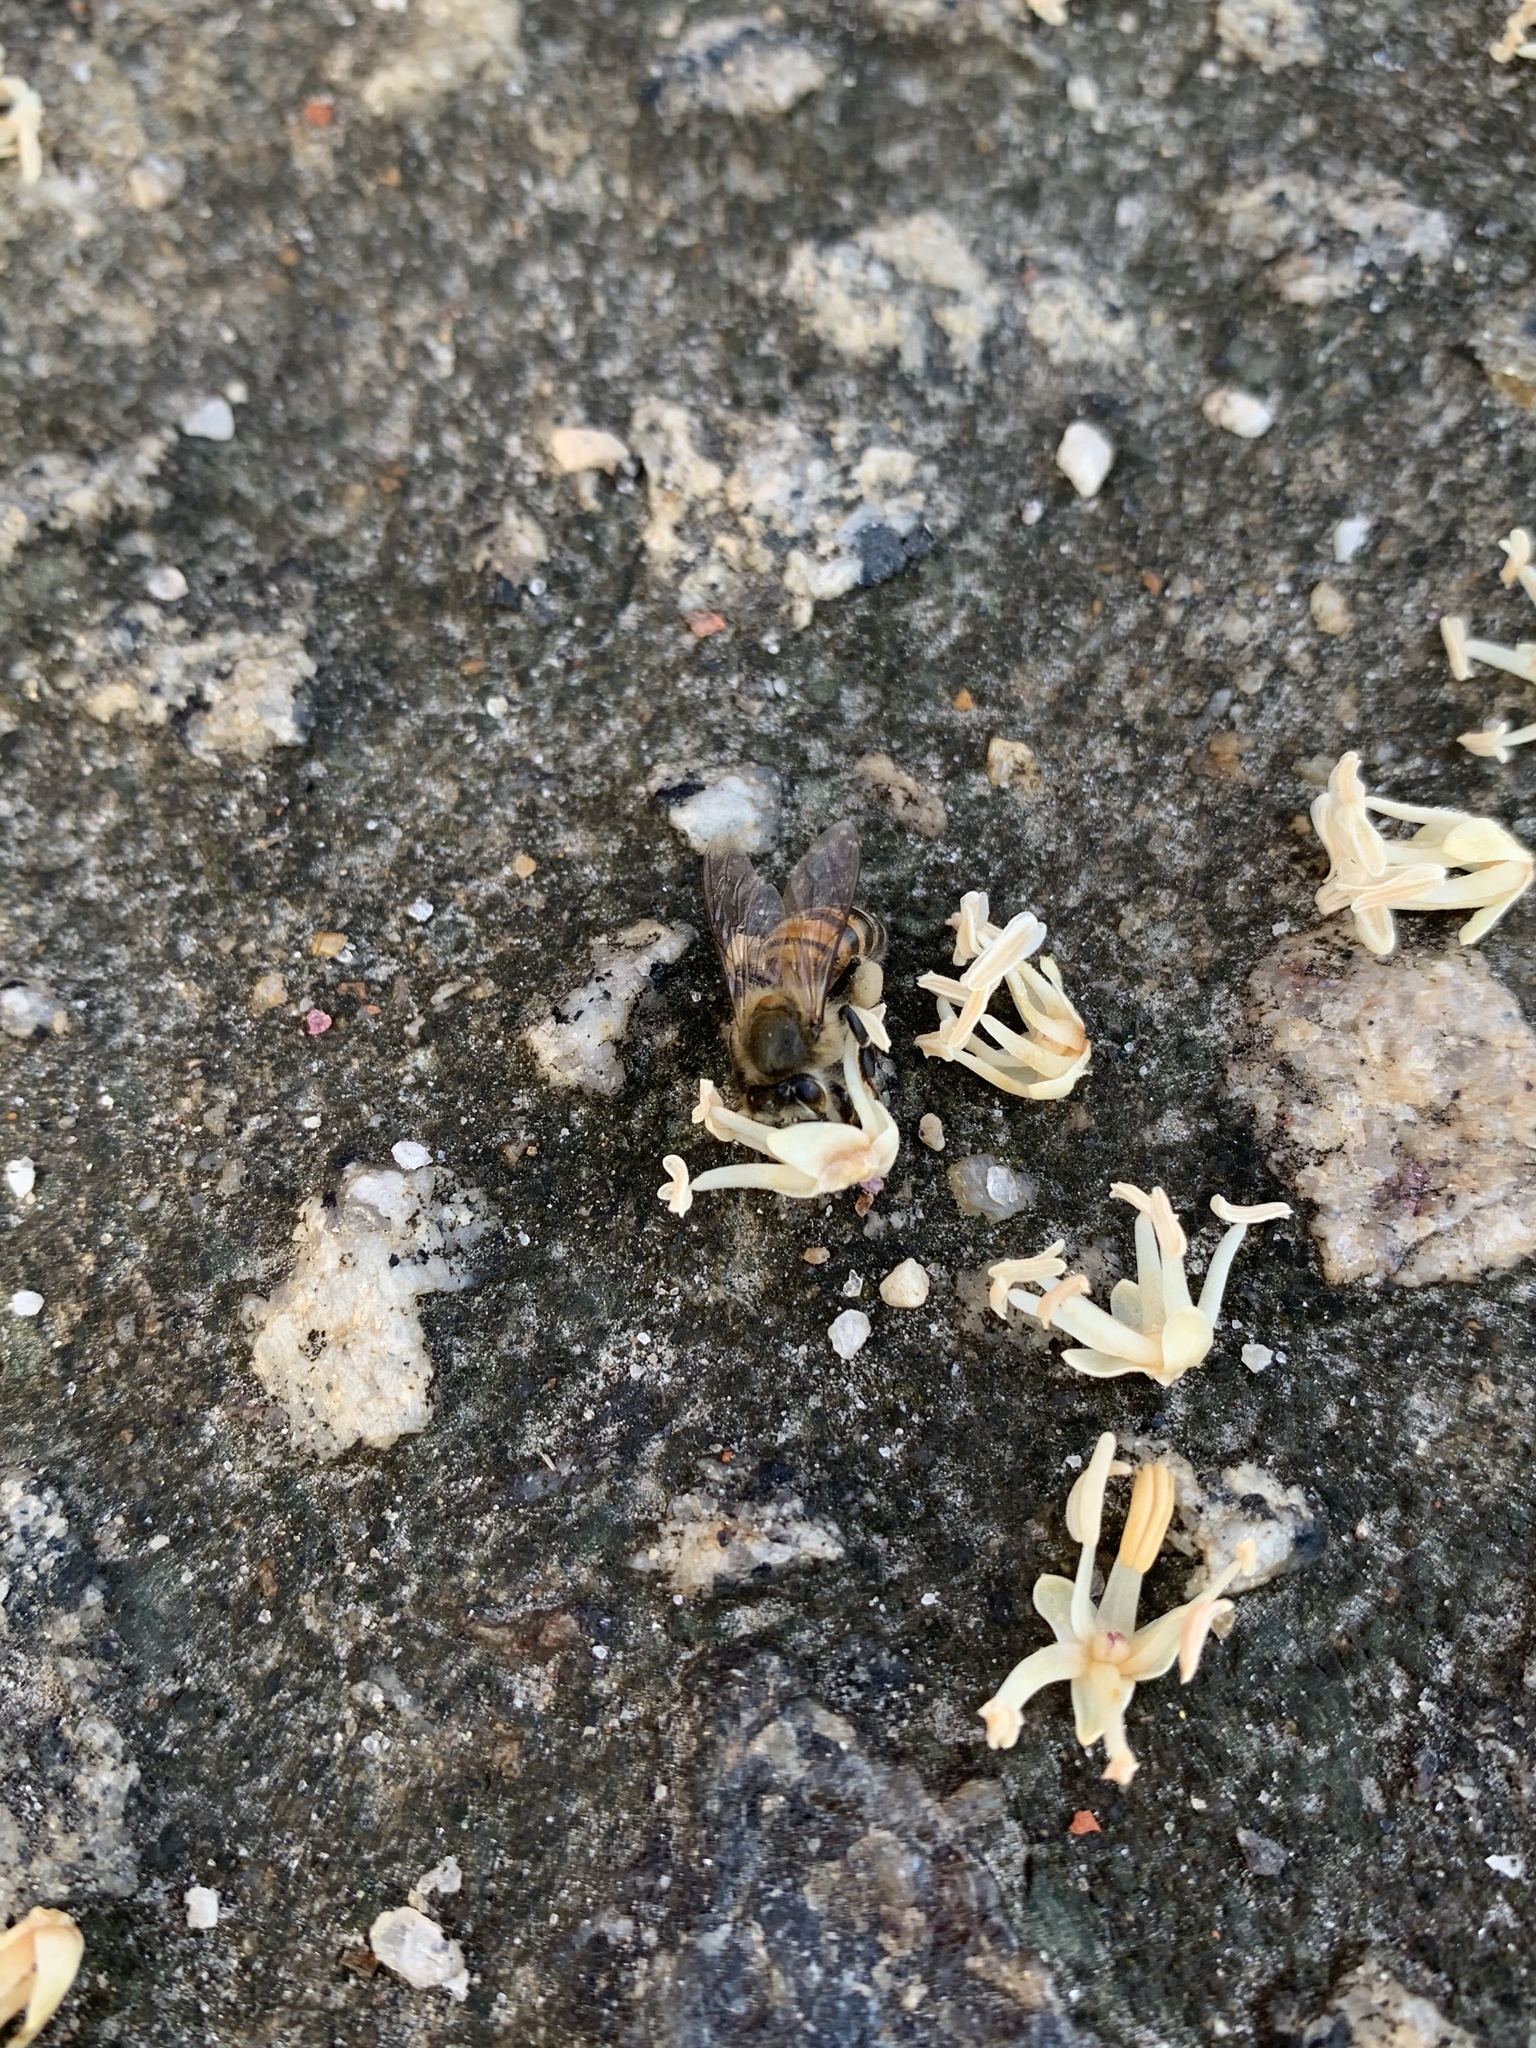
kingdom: Animalia
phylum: Arthropoda
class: Insecta
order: Hymenoptera
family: Apidae
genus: Apis
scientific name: Apis mellifera
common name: Honey bee
